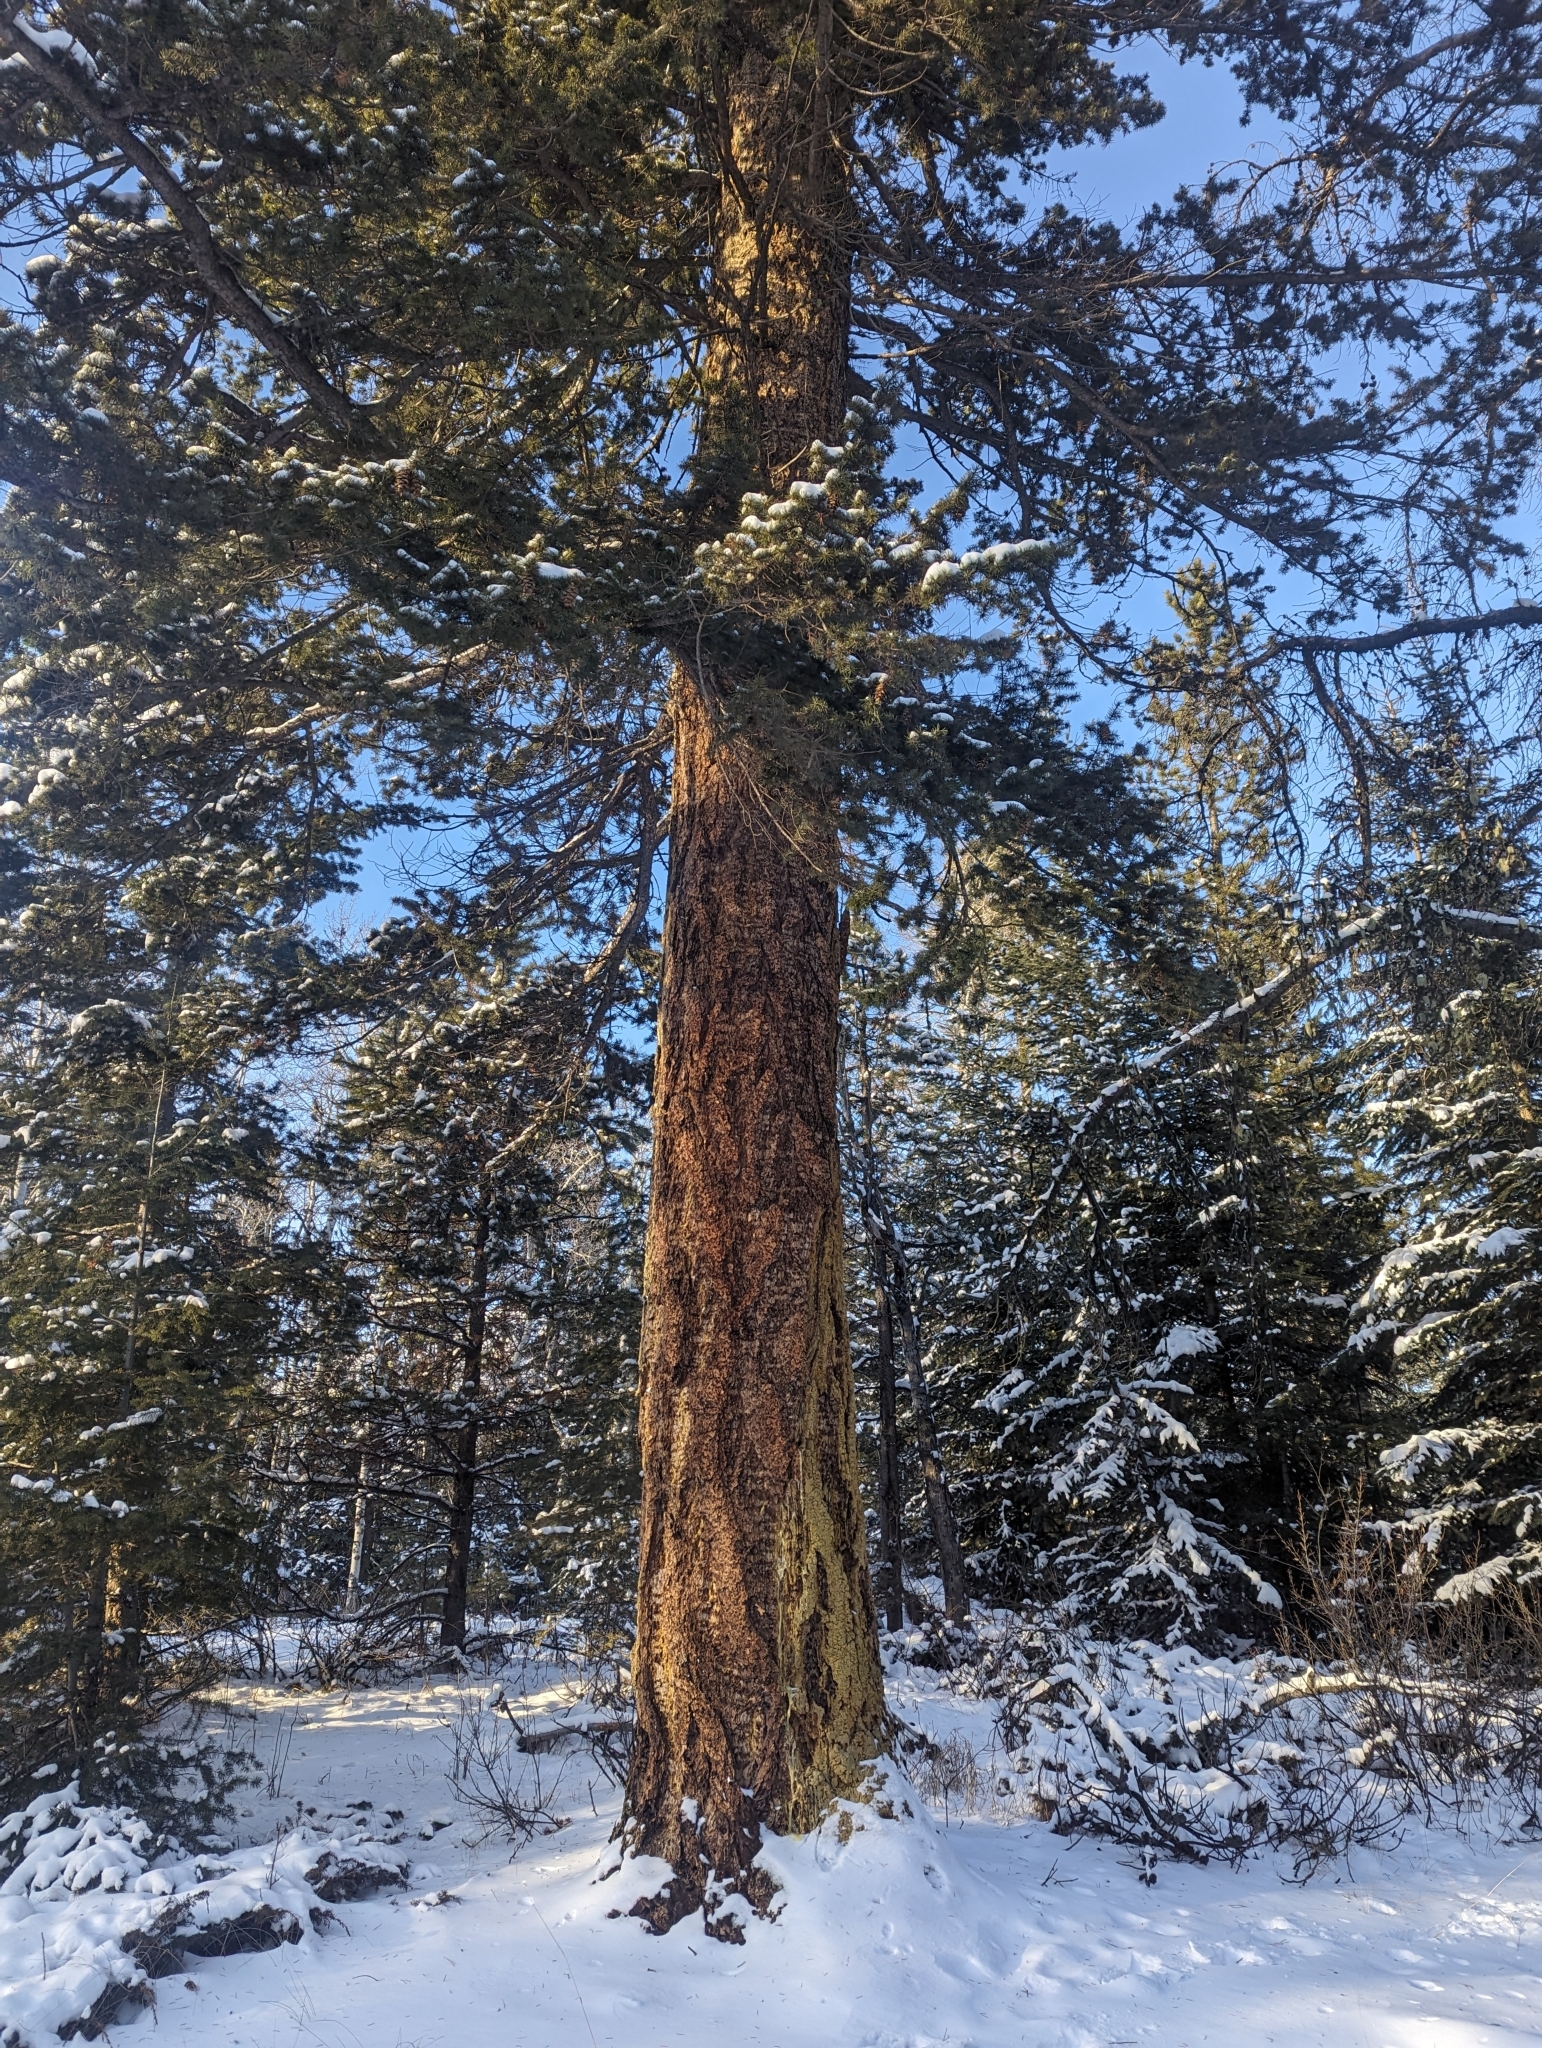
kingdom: Plantae
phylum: Tracheophyta
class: Pinopsida
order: Pinales
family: Pinaceae
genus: Pseudotsuga
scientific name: Pseudotsuga menziesii
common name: Douglas fir
